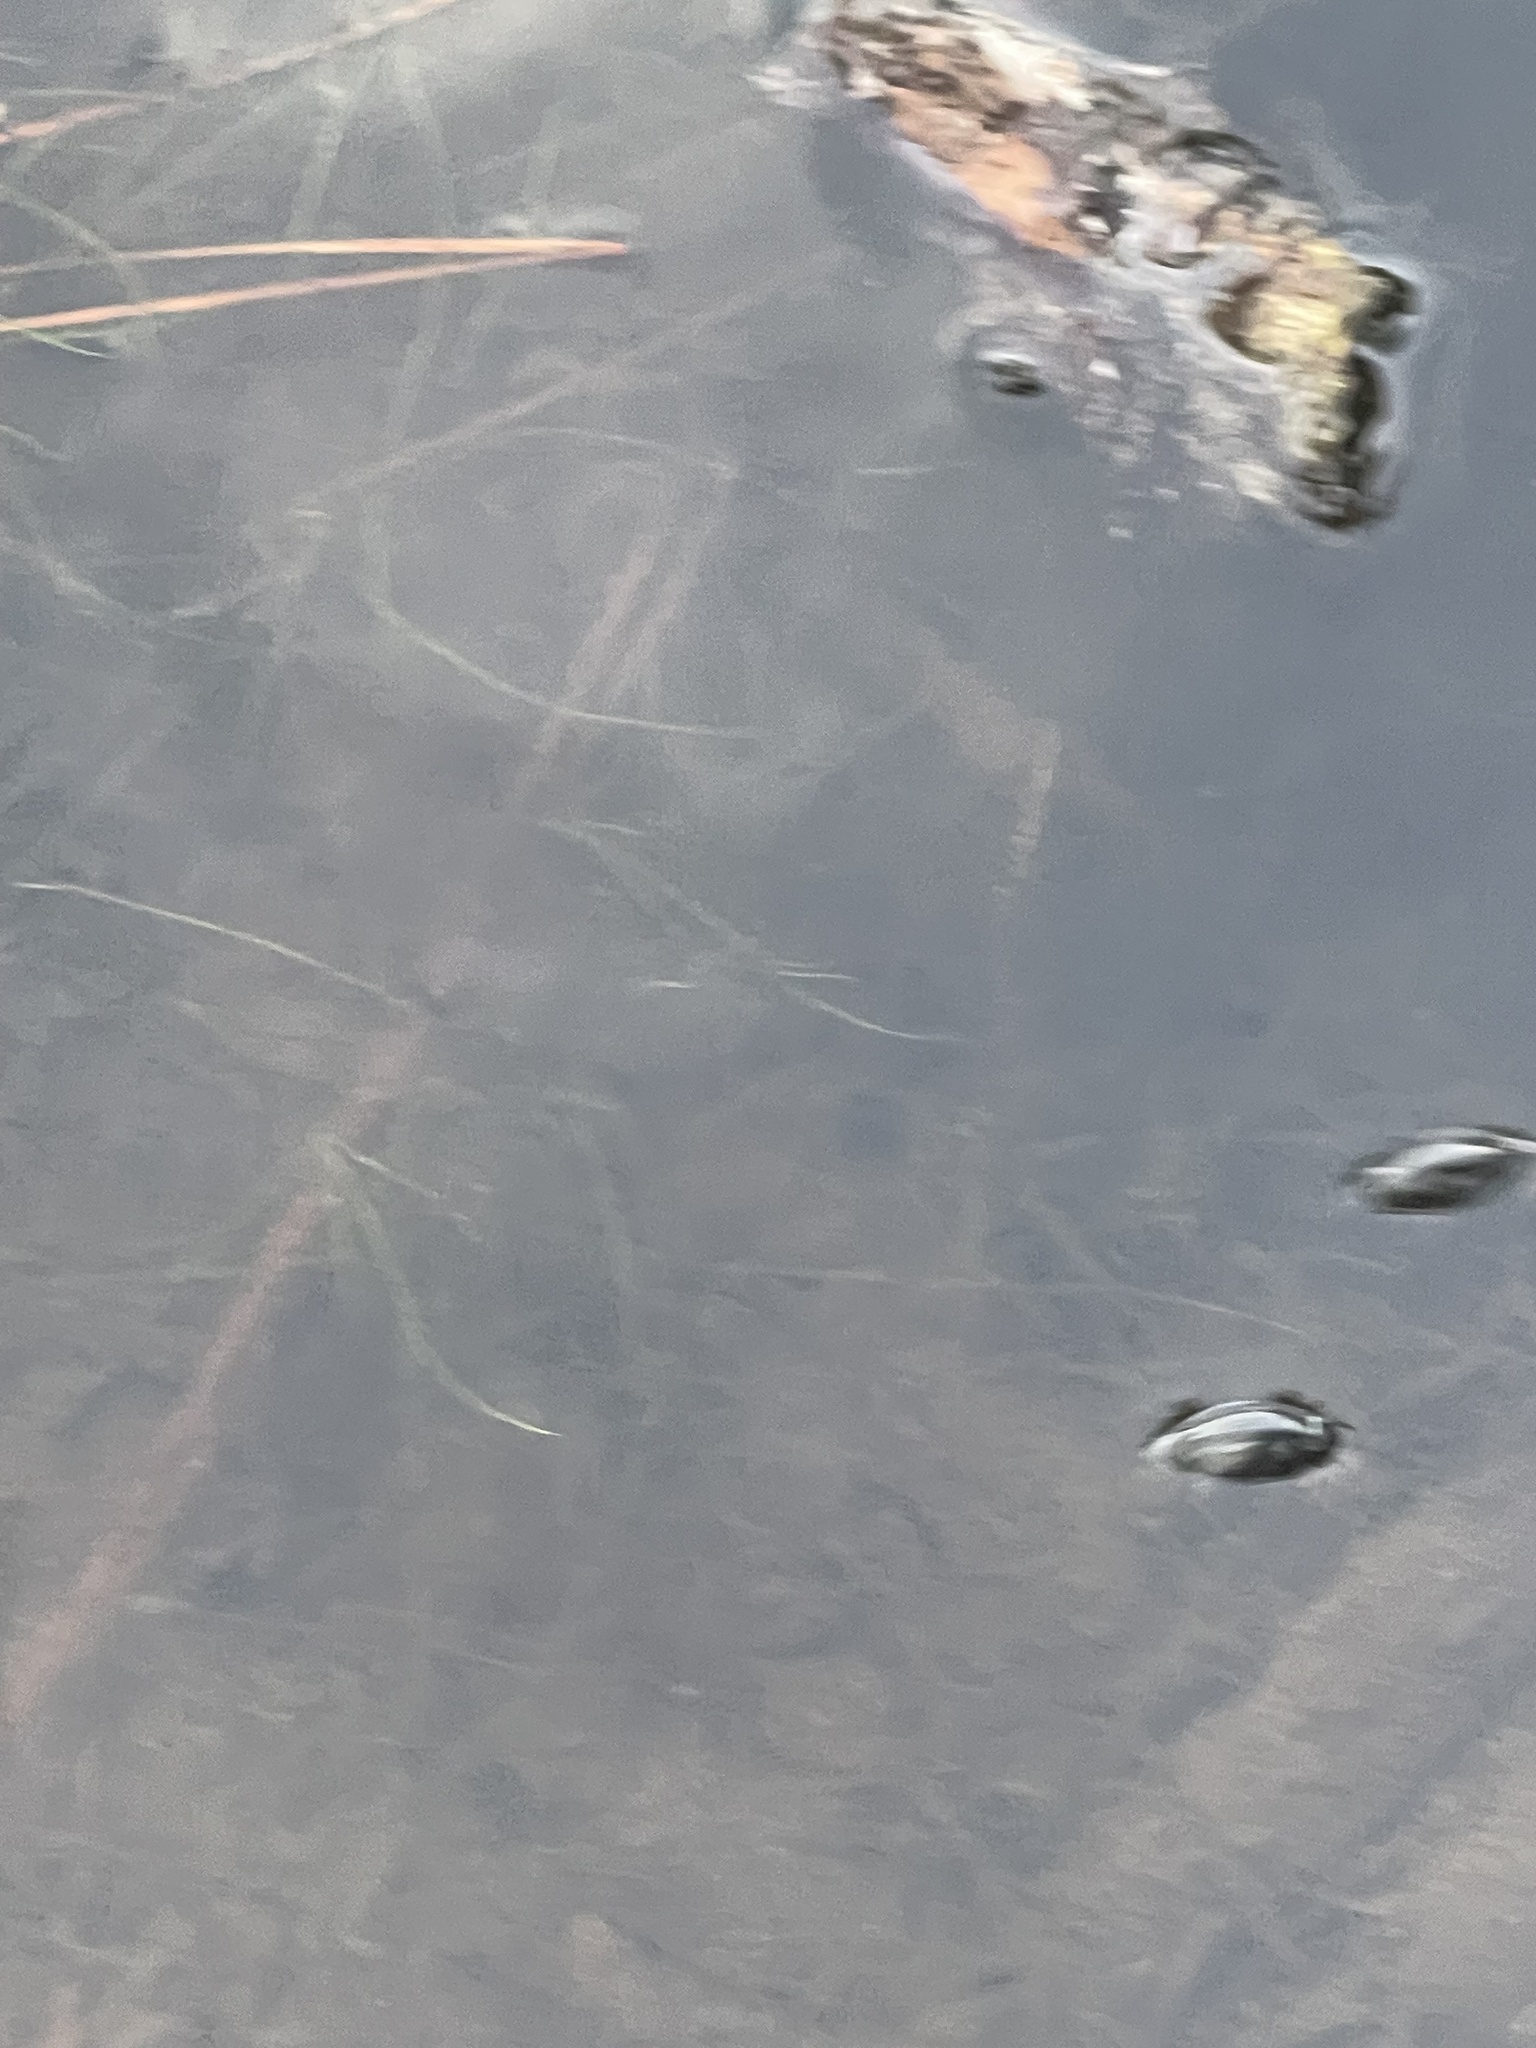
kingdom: Animalia
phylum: Arthropoda
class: Insecta
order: Coleoptera
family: Gyrinidae
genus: Dineutus
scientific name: Dineutus
